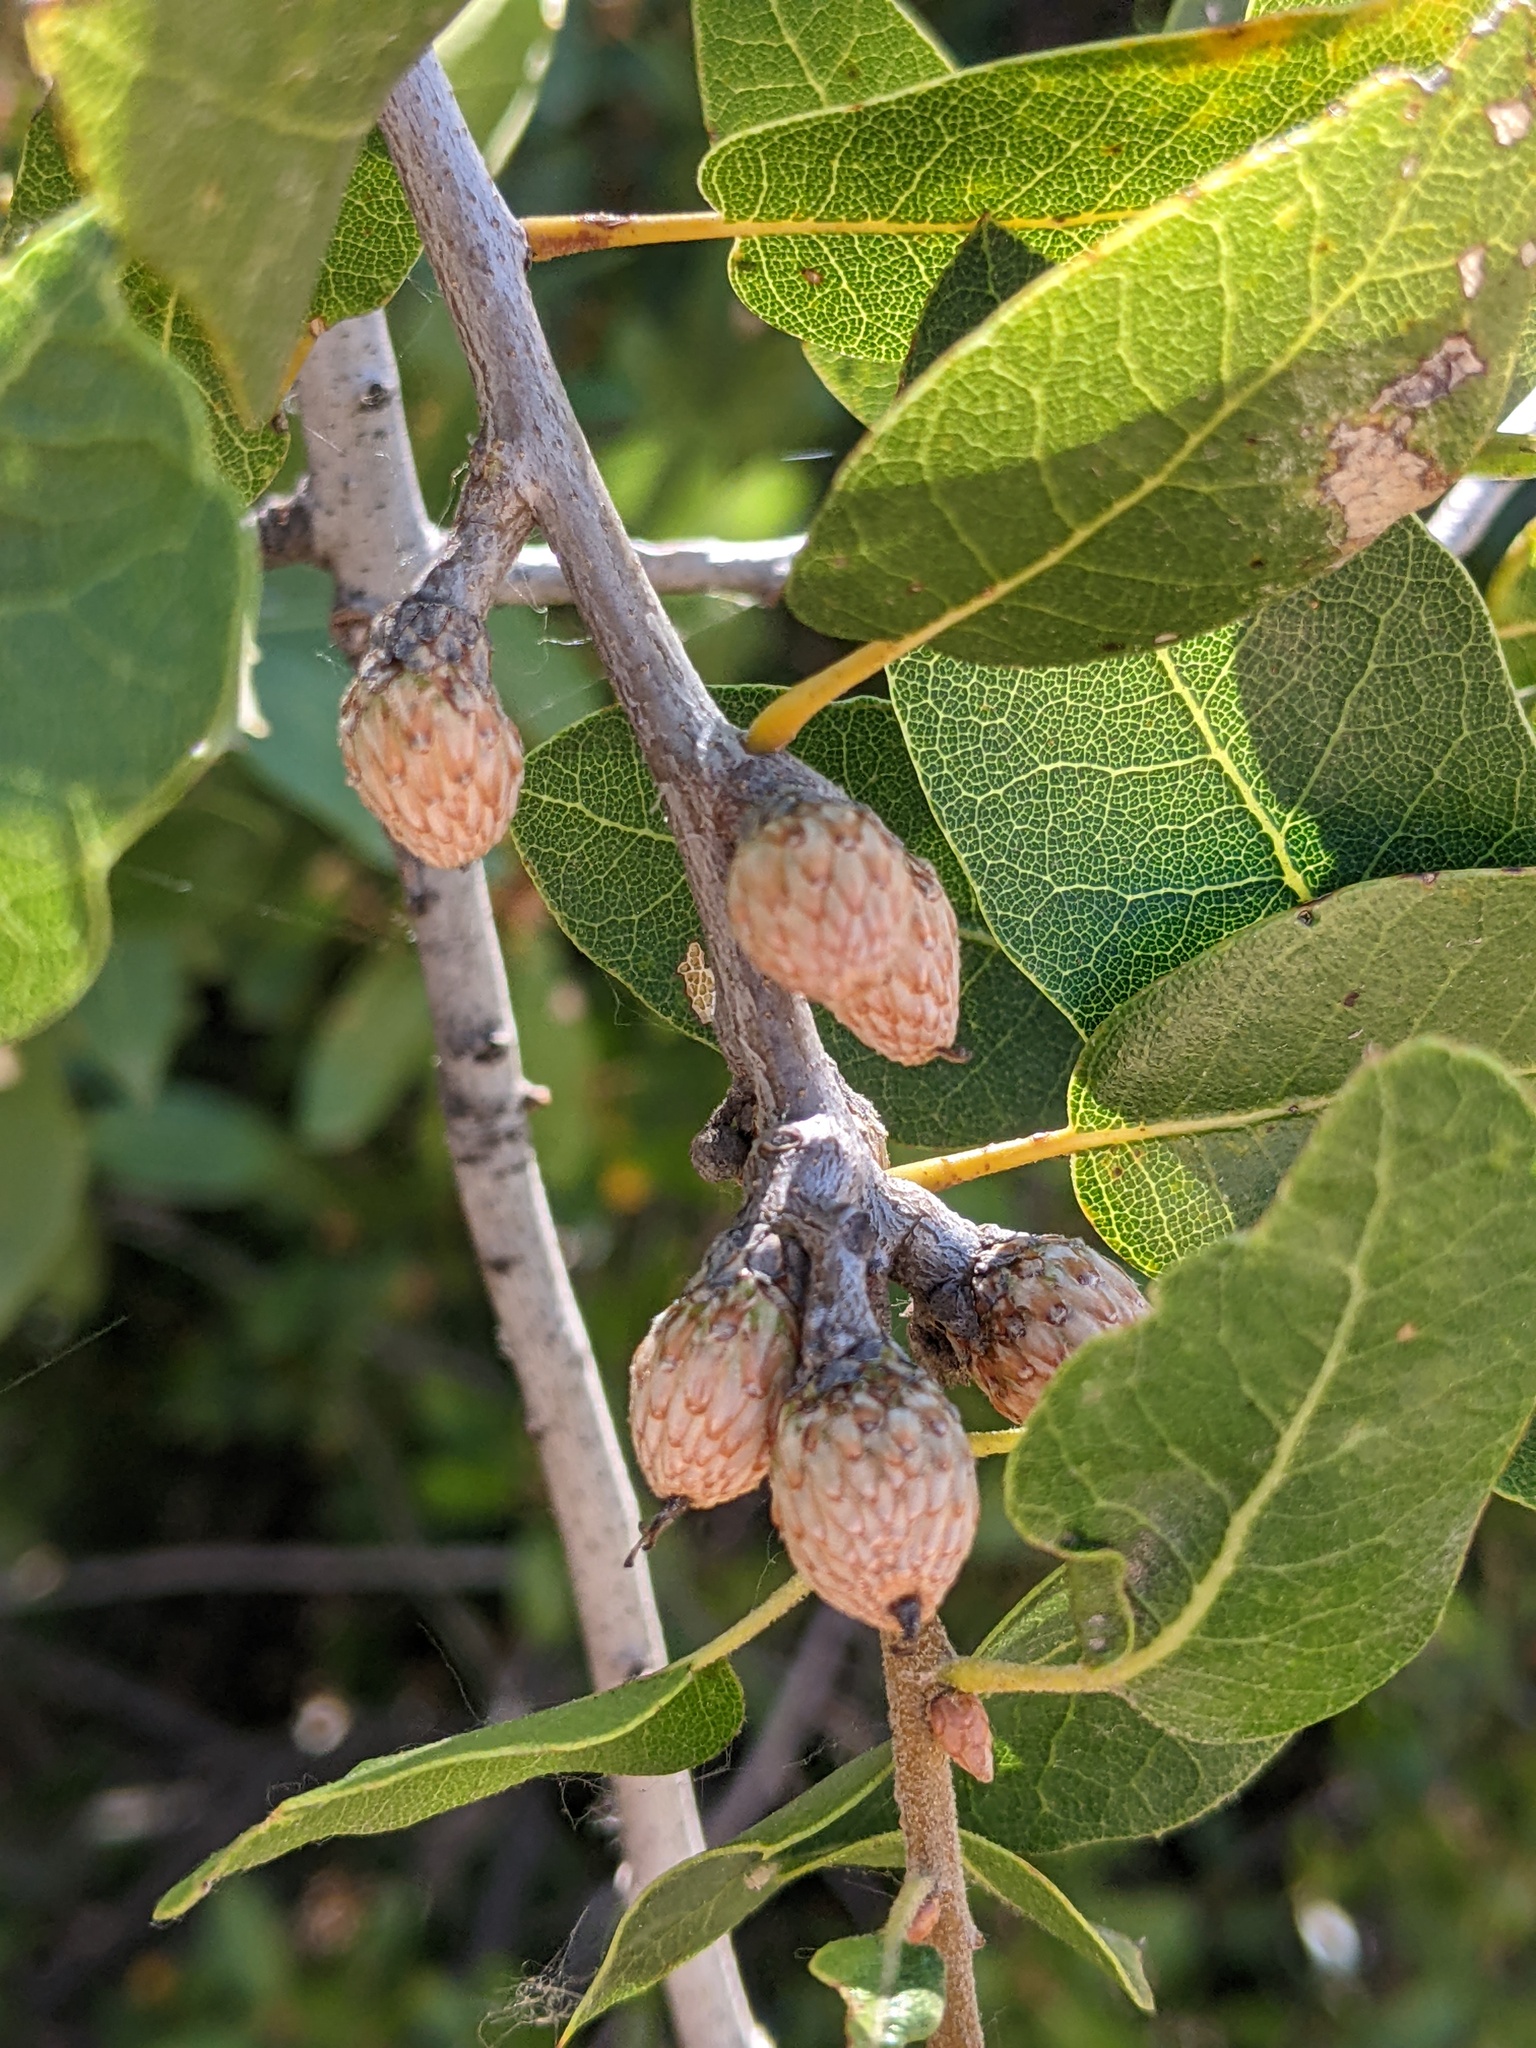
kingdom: Plantae
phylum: Tracheophyta
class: Magnoliopsida
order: Fagales
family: Fagaceae
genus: Quercus
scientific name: Quercus wislizeni
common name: Interior live oak
